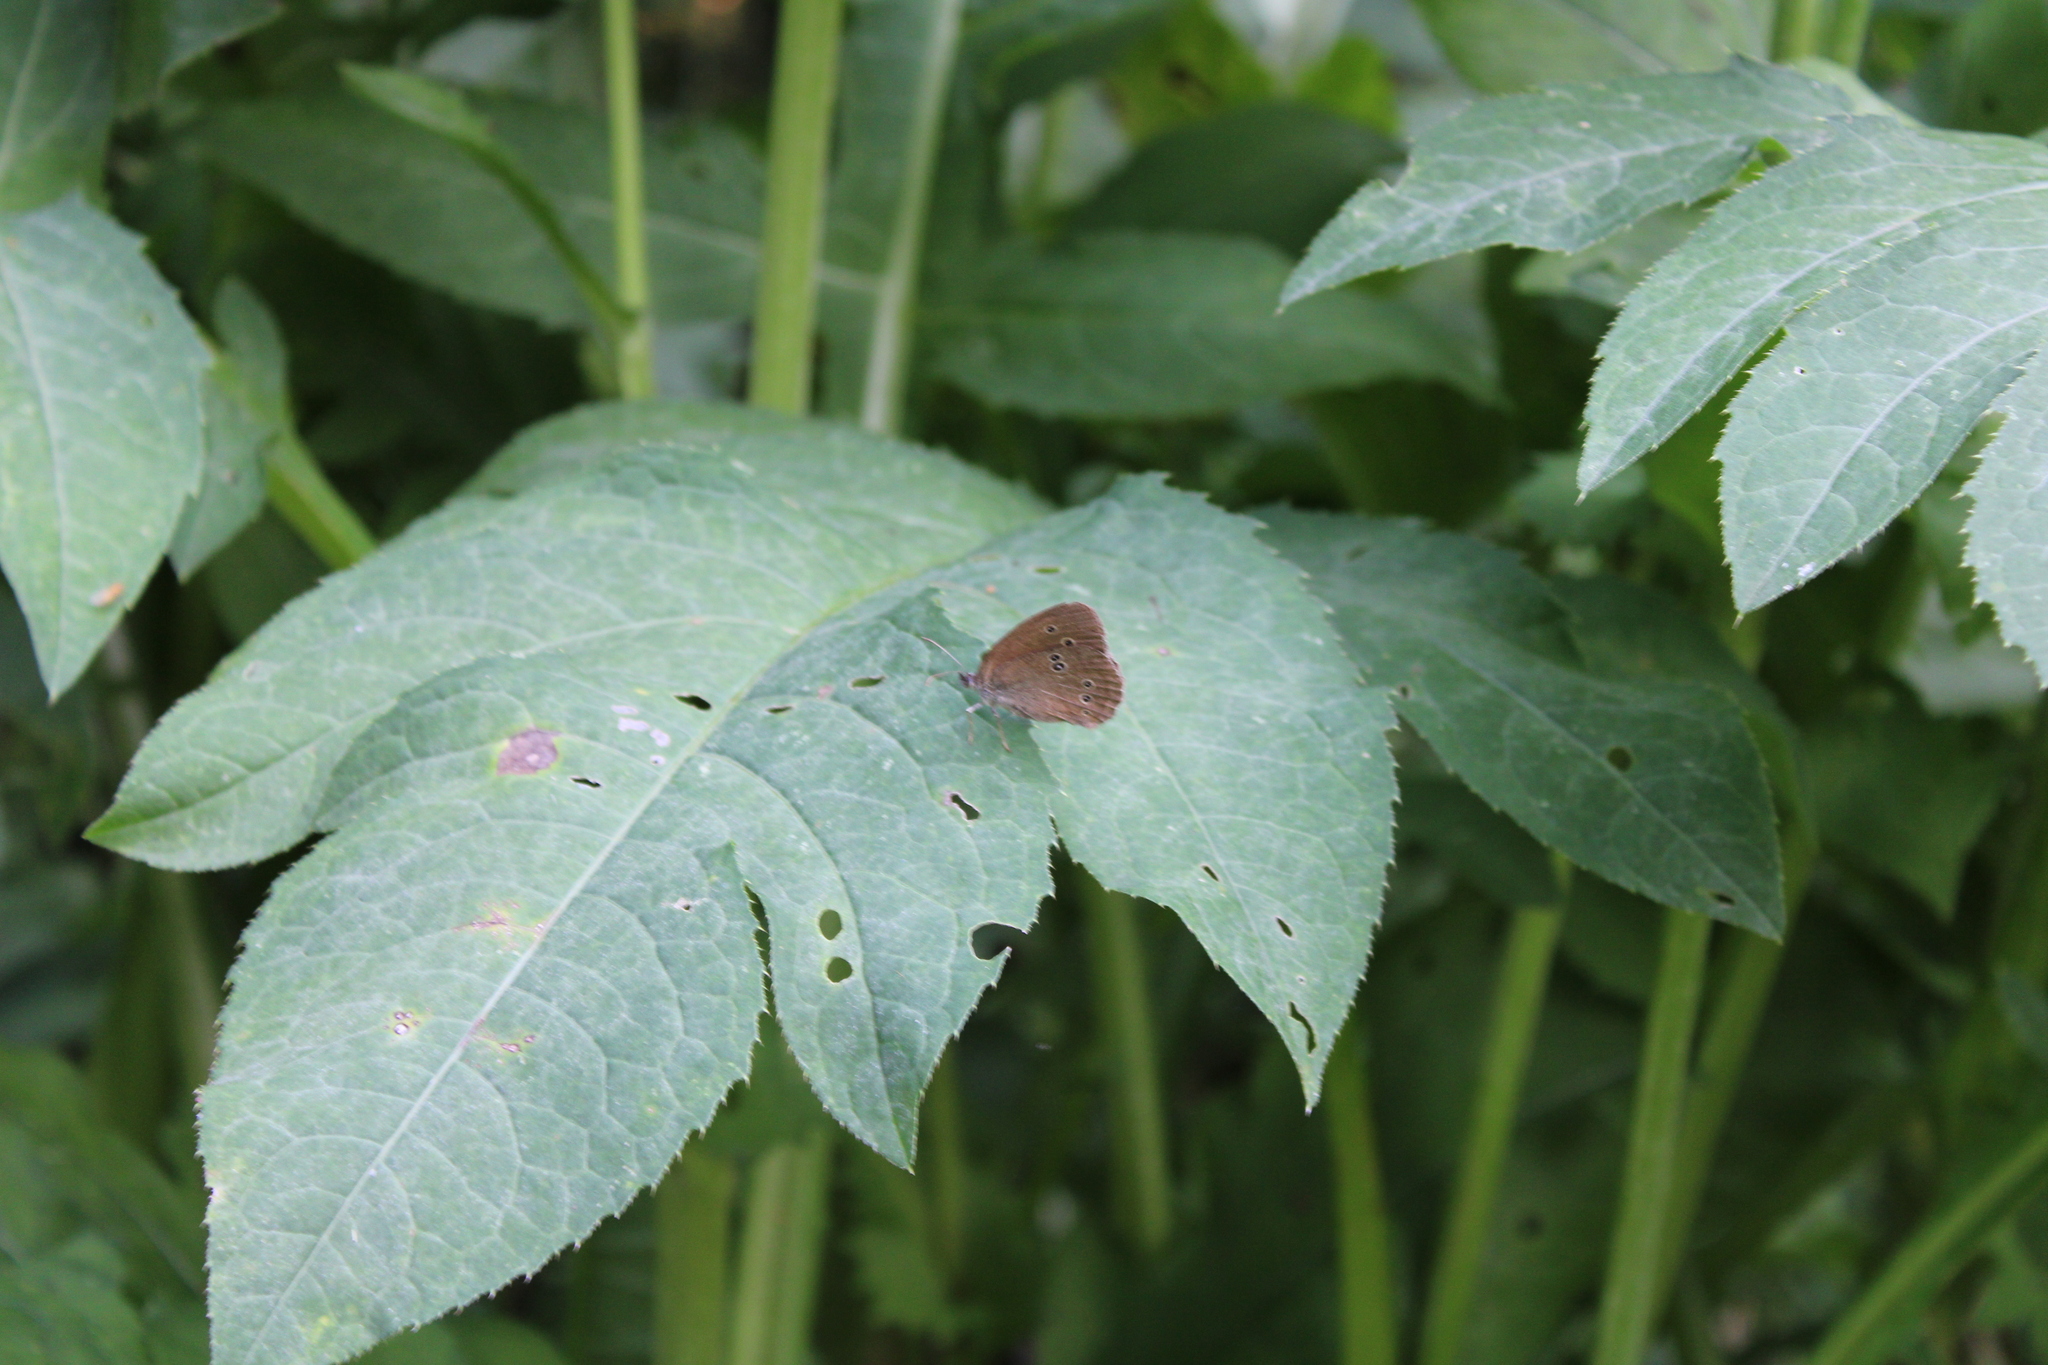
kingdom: Animalia
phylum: Arthropoda
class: Insecta
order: Lepidoptera
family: Nymphalidae
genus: Aphantopus
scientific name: Aphantopus hyperantus
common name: Ringlet
